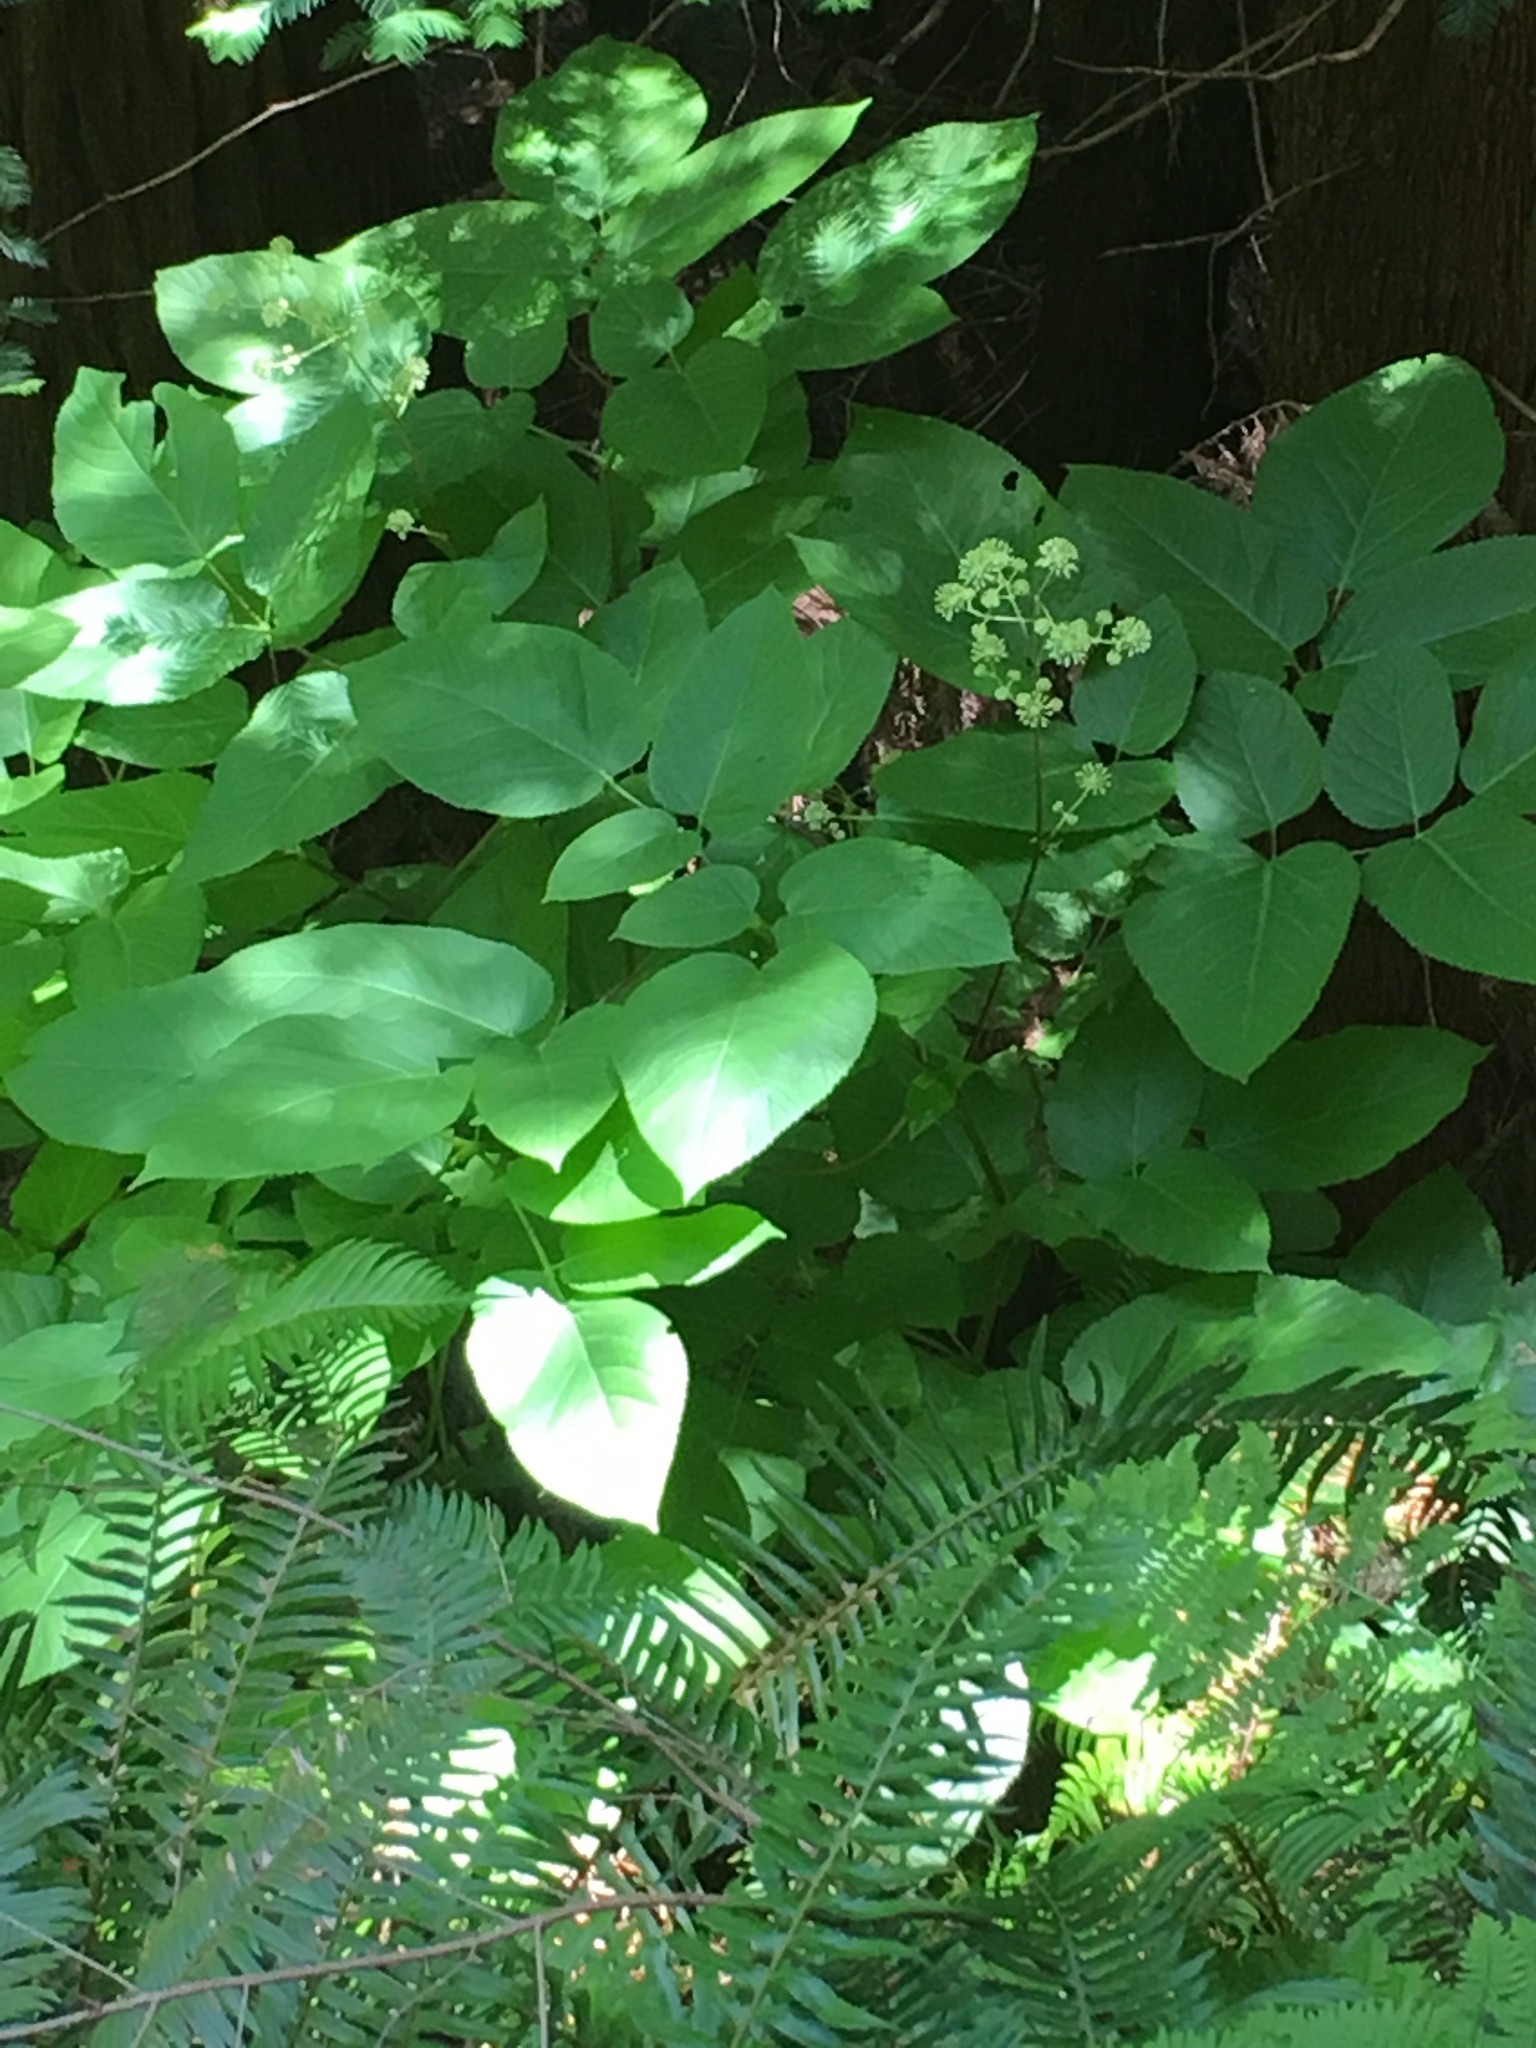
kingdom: Plantae
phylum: Tracheophyta
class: Magnoliopsida
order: Apiales
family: Araliaceae
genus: Aralia
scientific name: Aralia californica
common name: California-ginseng
